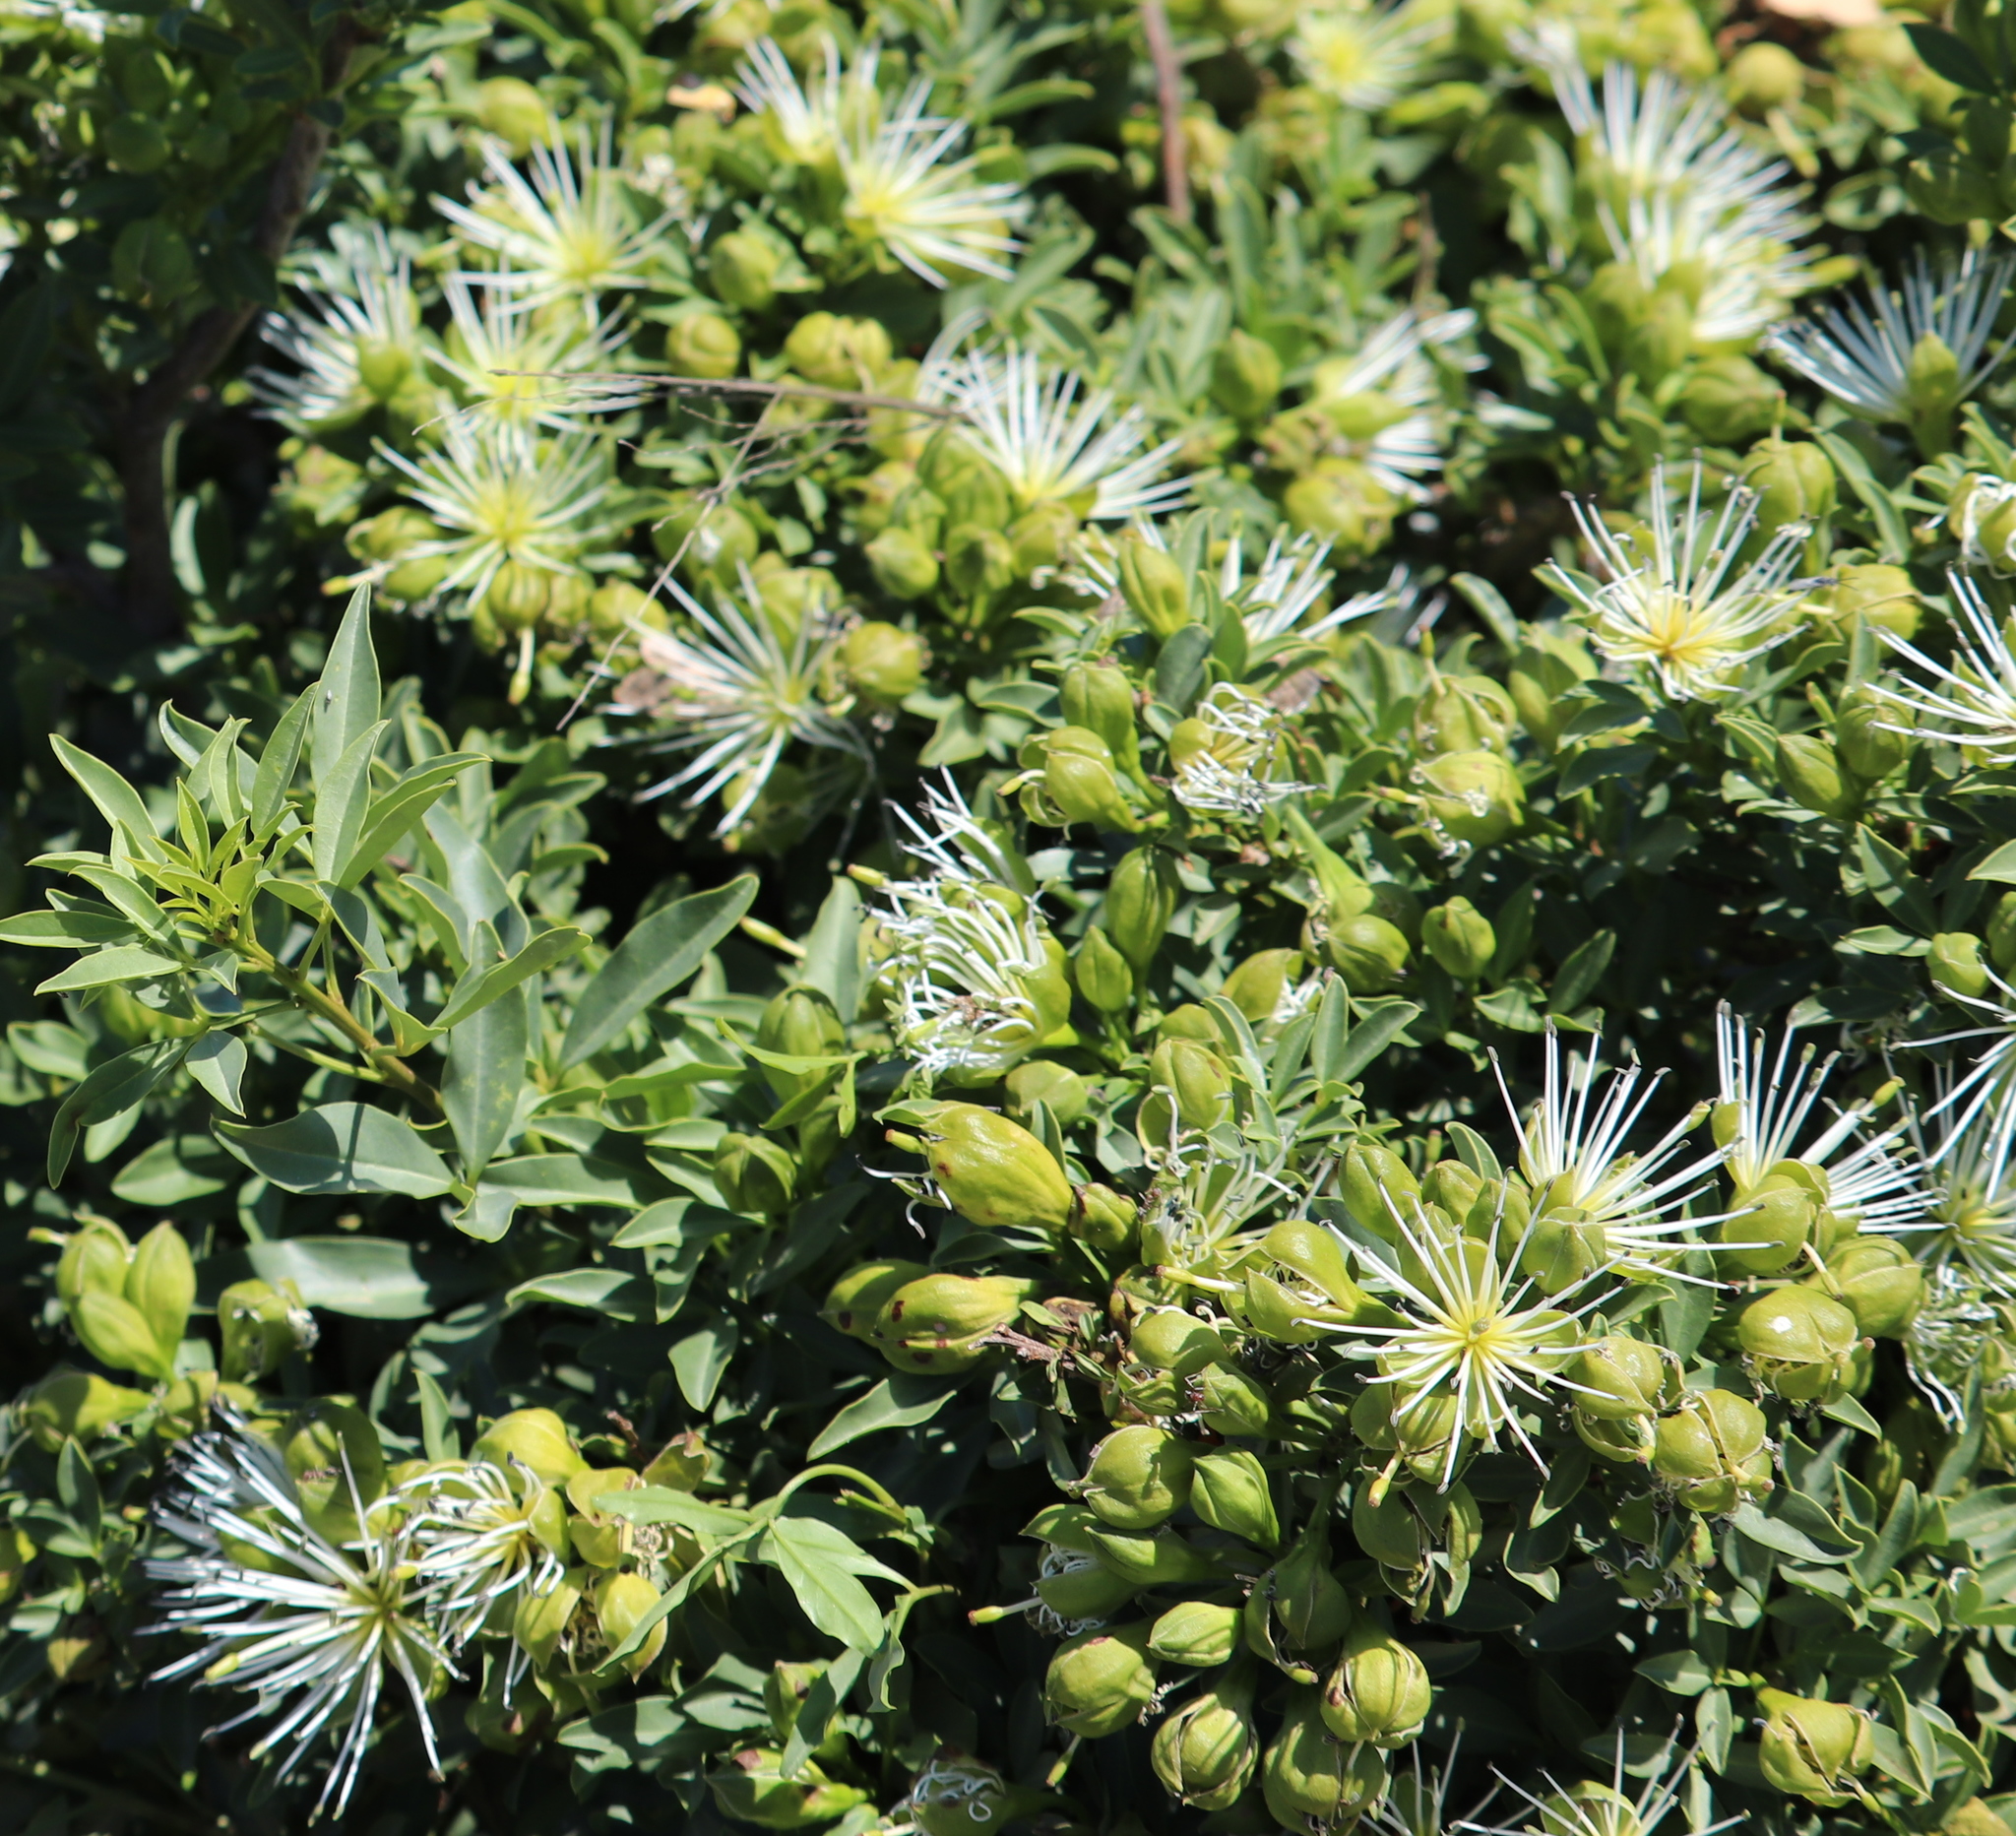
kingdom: Plantae
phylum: Tracheophyta
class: Magnoliopsida
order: Brassicales
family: Capparaceae
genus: Maerua
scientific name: Maerua cafra
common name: Bush maerua
